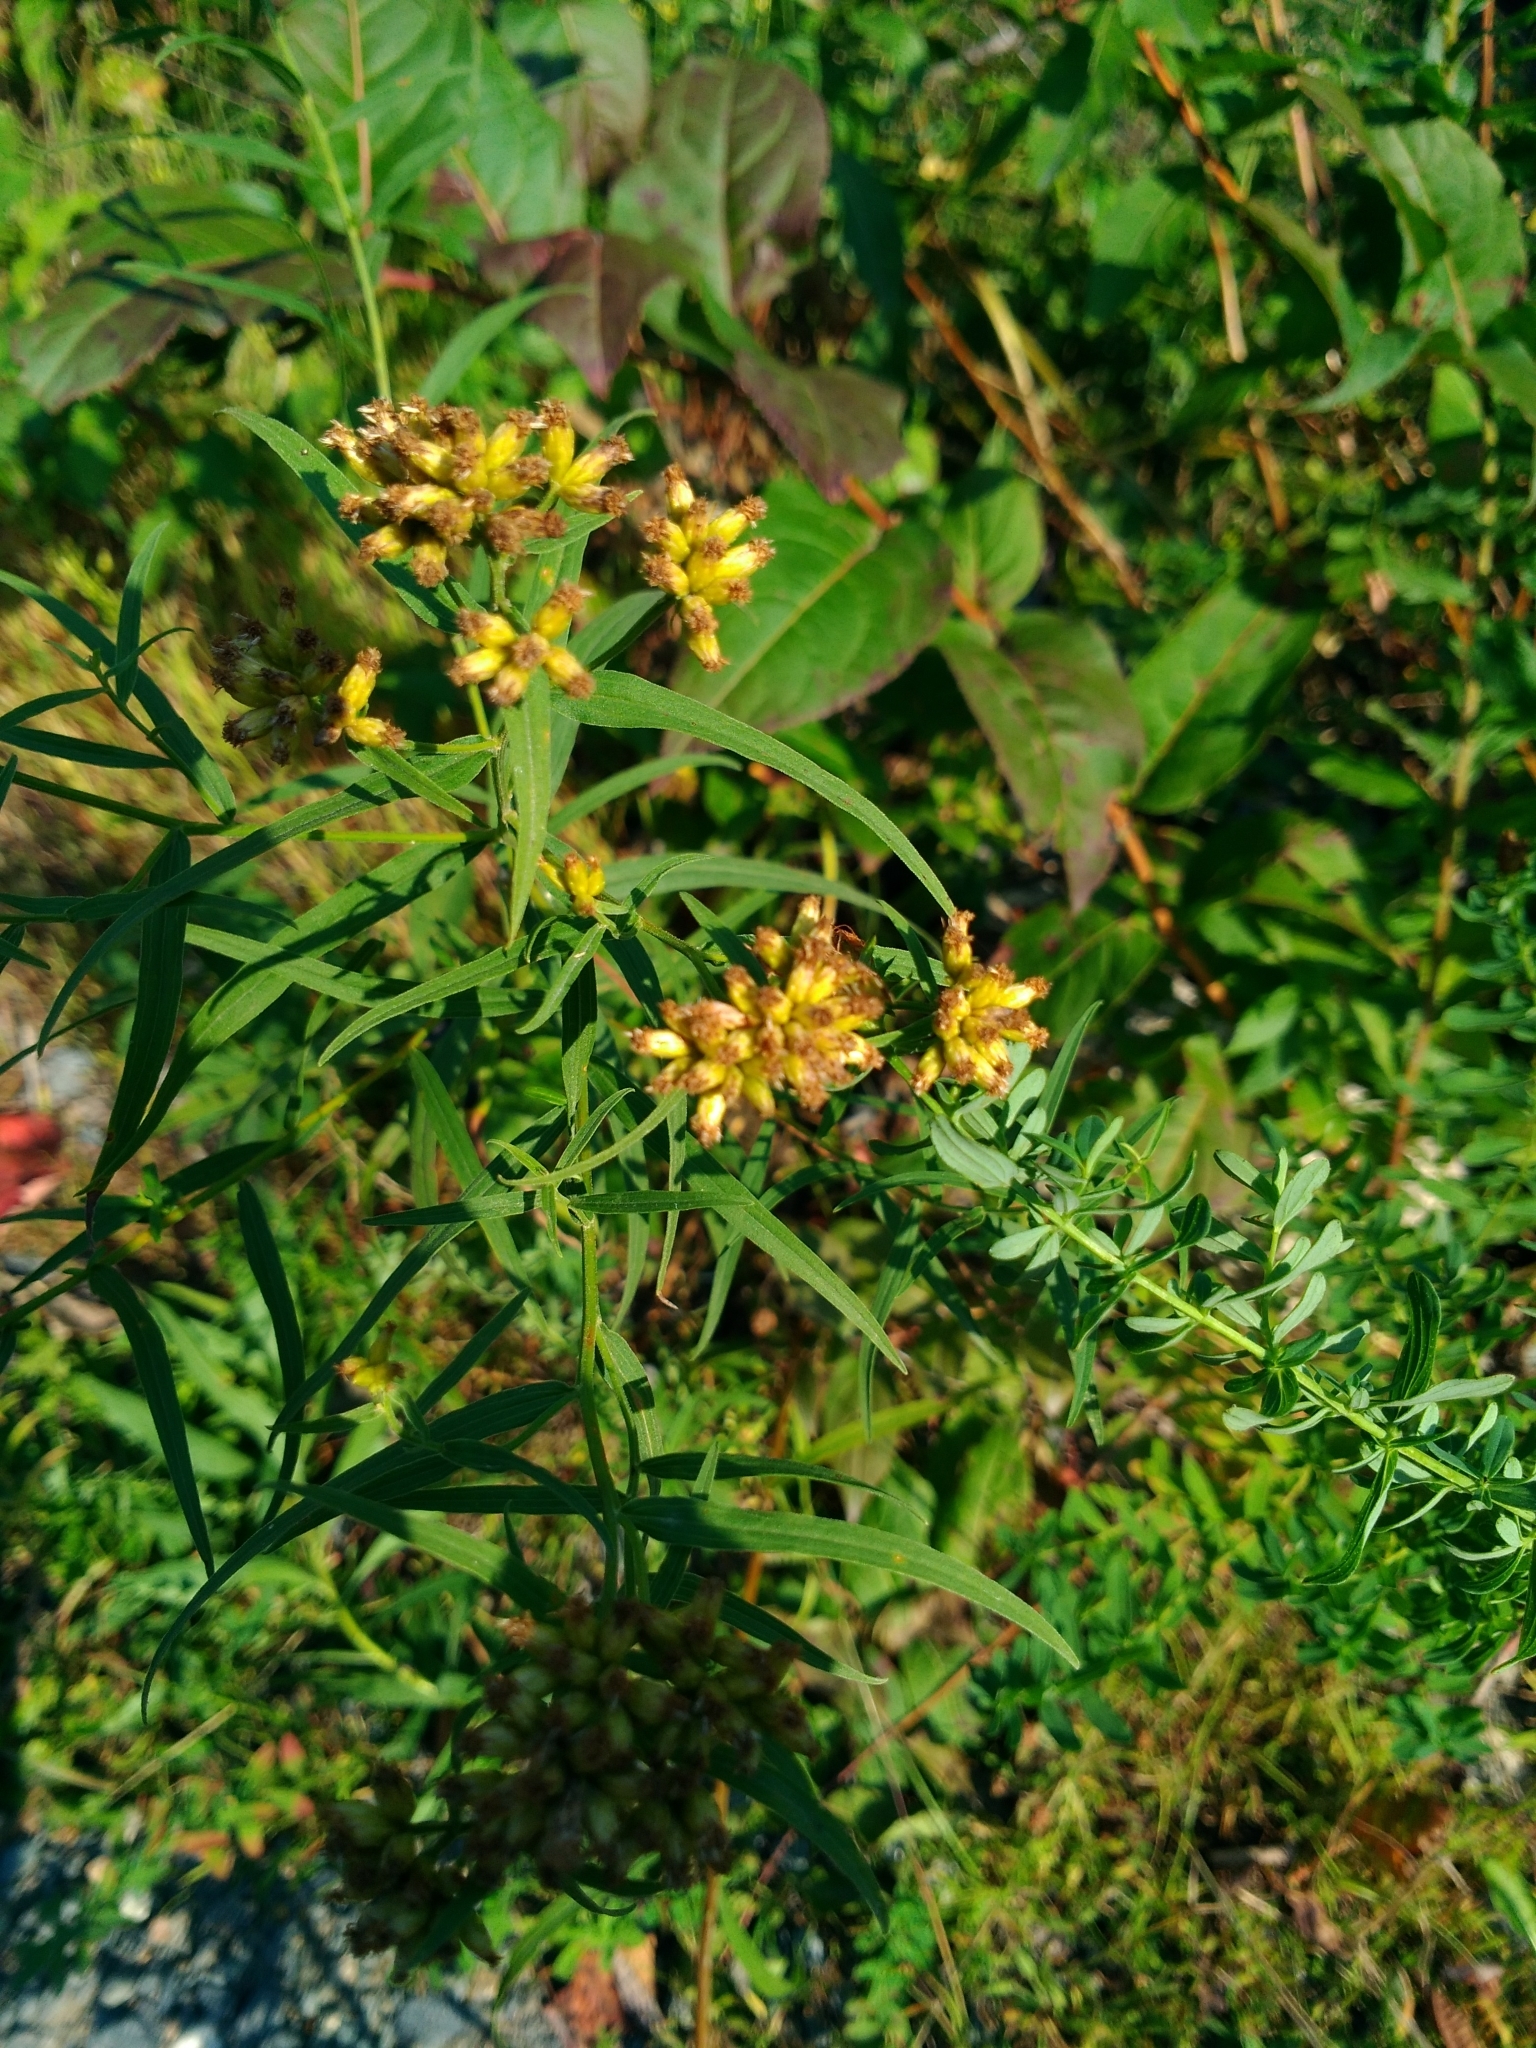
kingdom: Plantae
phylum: Tracheophyta
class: Magnoliopsida
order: Asterales
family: Asteraceae
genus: Euthamia
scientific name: Euthamia graminifolia
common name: Common goldentop
